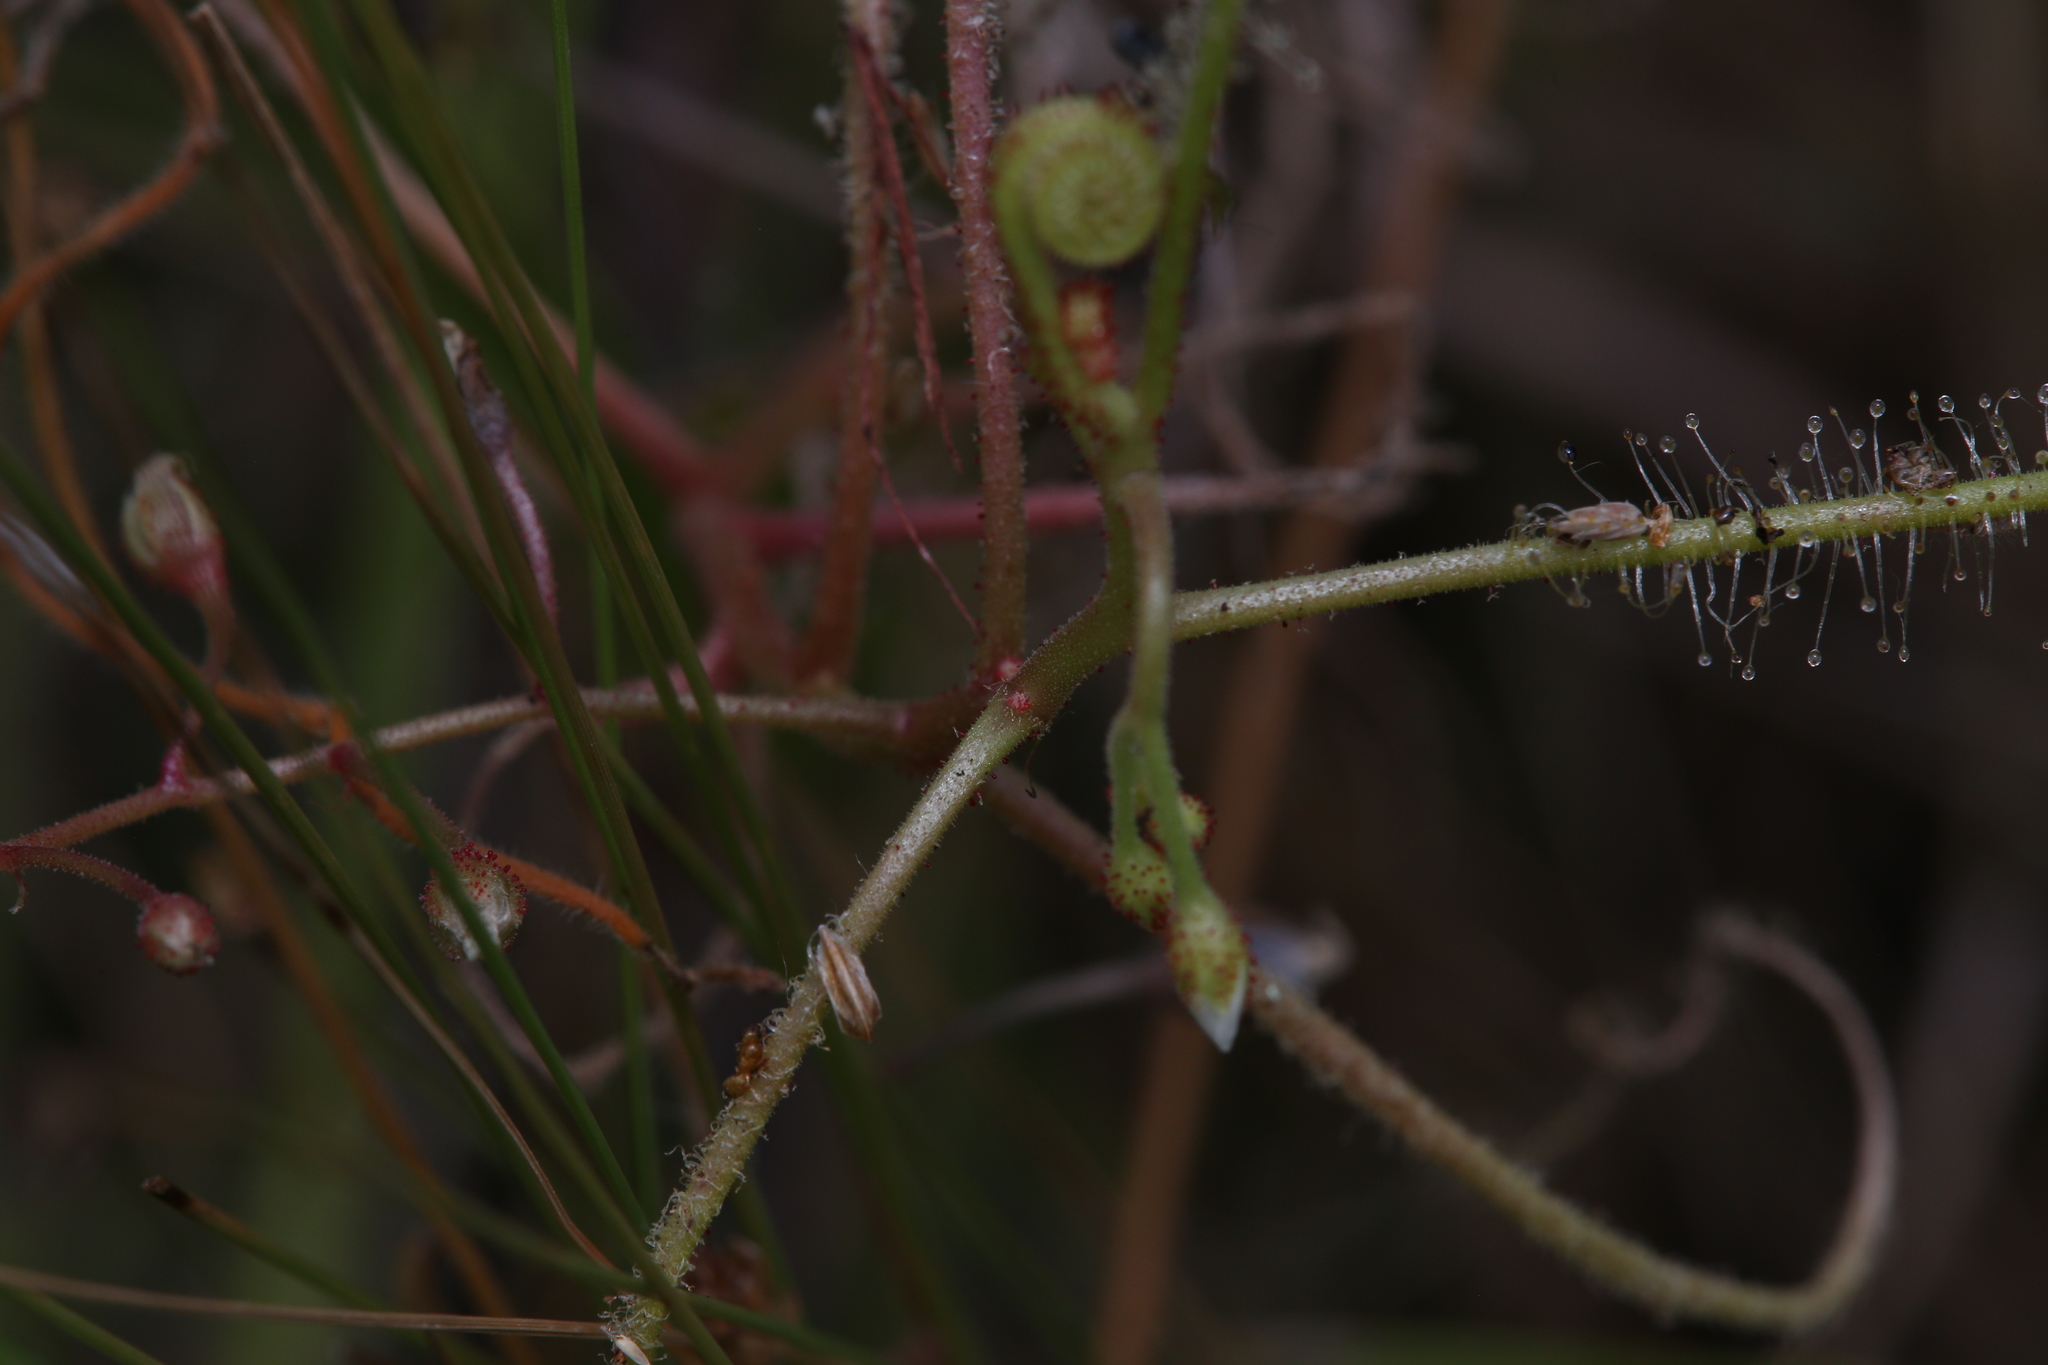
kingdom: Plantae
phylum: Tracheophyta
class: Magnoliopsida
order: Caryophyllales
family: Droseraceae
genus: Drosera
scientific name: Drosera indica
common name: Indian sundew
